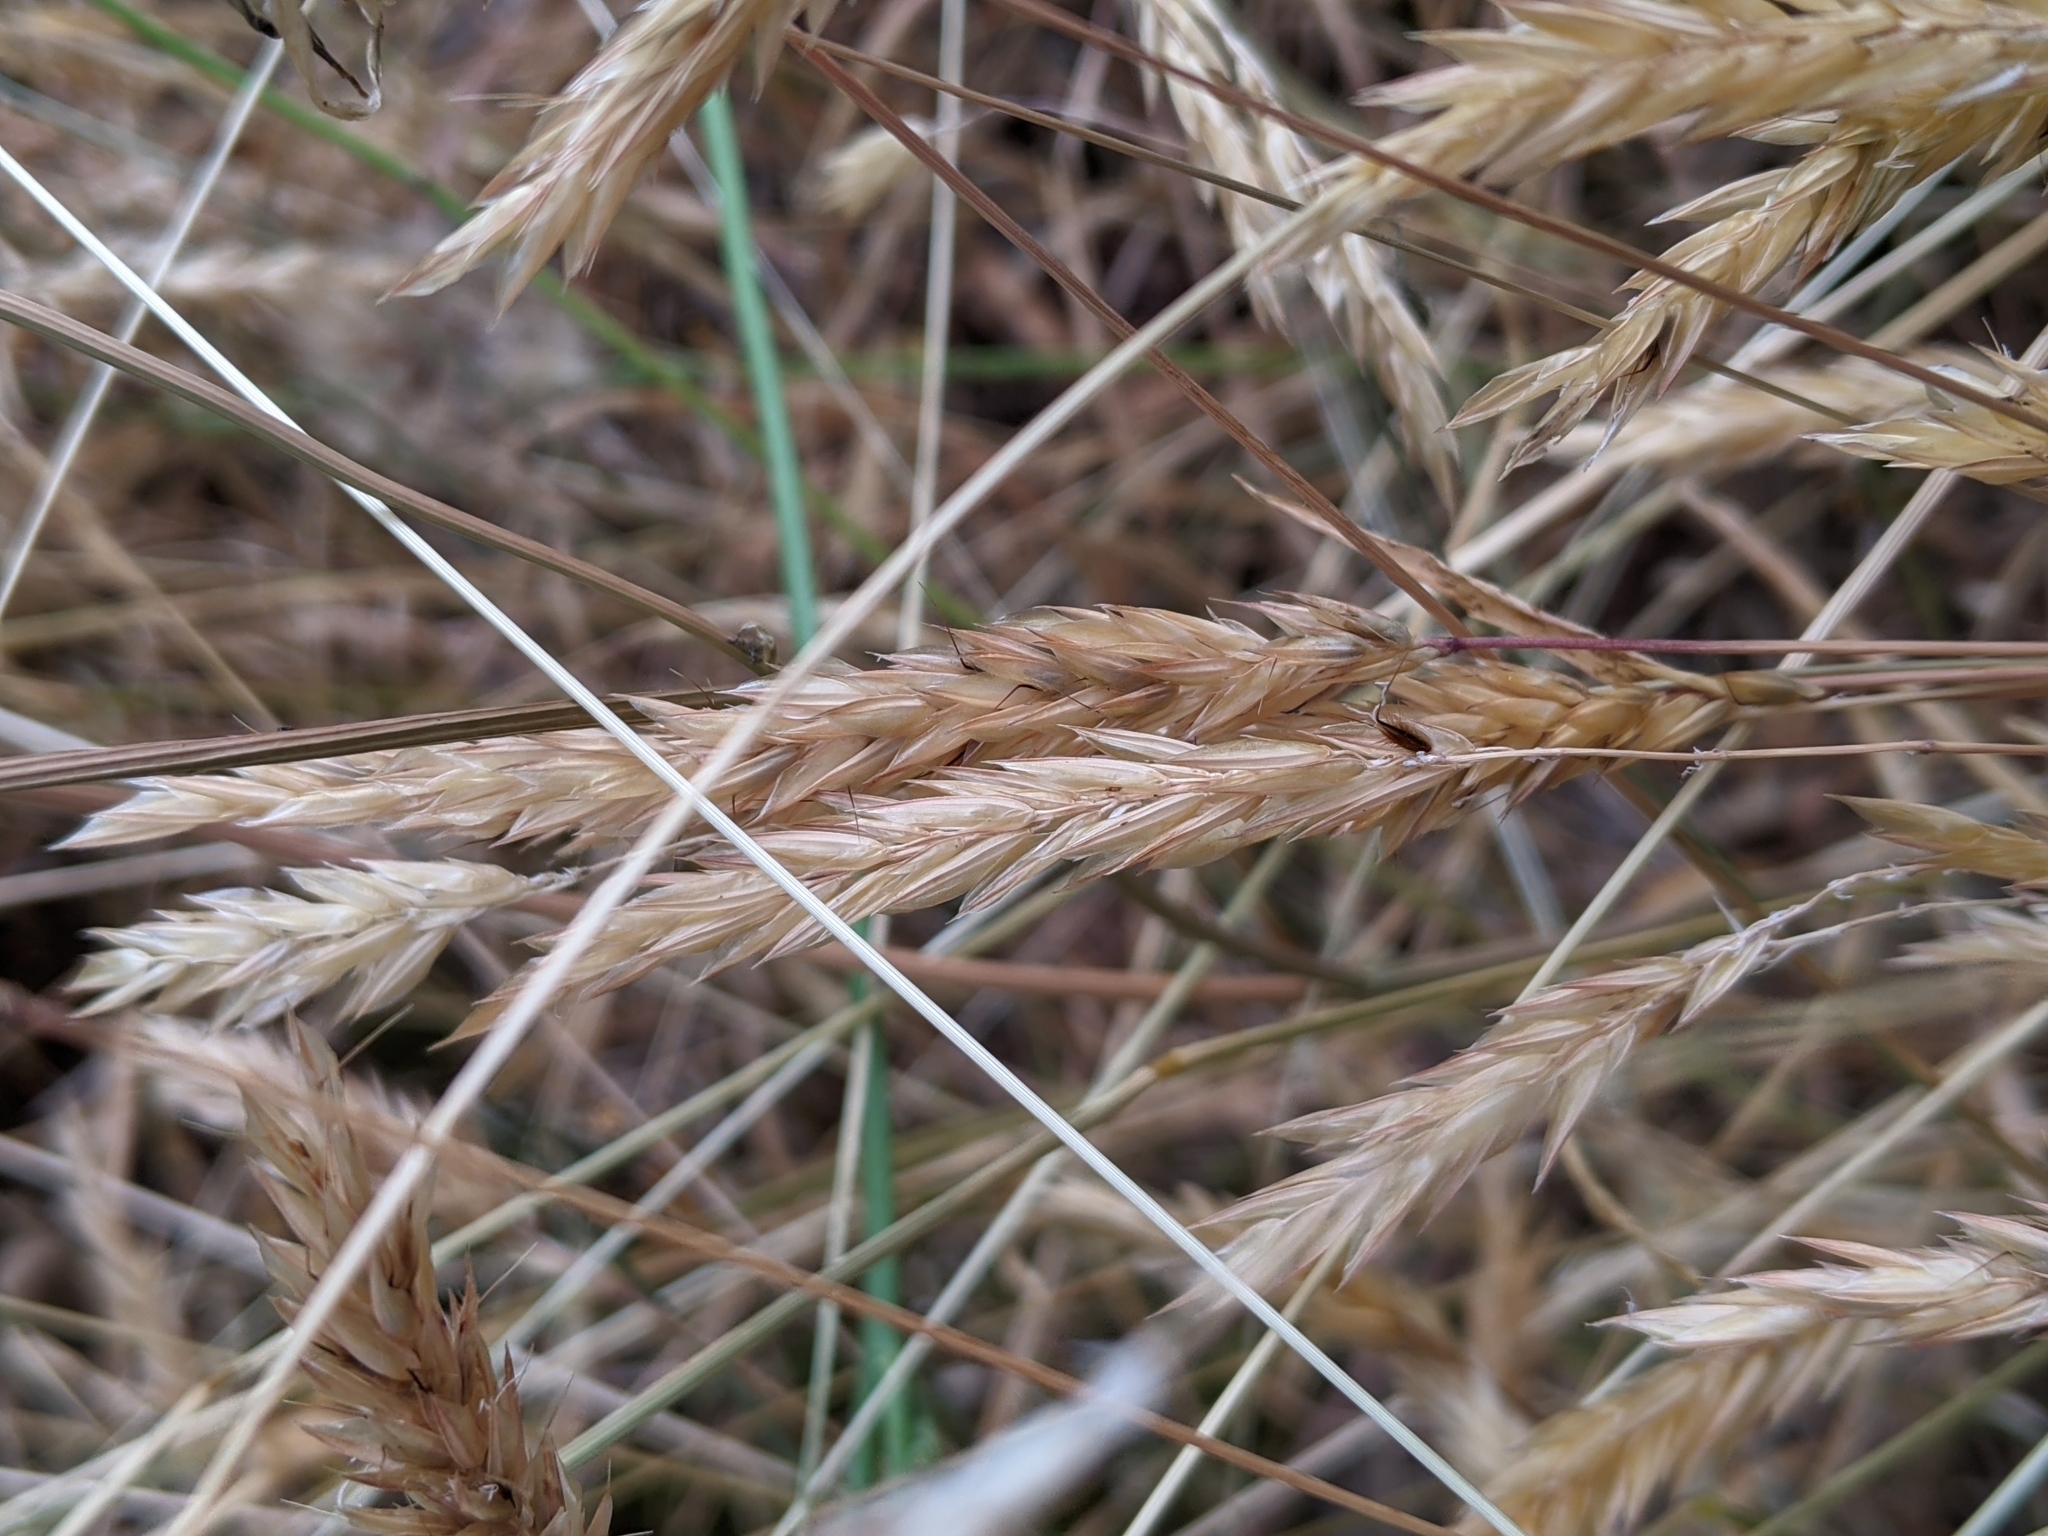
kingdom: Plantae
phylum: Tracheophyta
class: Liliopsida
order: Poales
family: Poaceae
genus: Anthoxanthum
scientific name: Anthoxanthum odoratum
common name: Sweet vernalgrass
